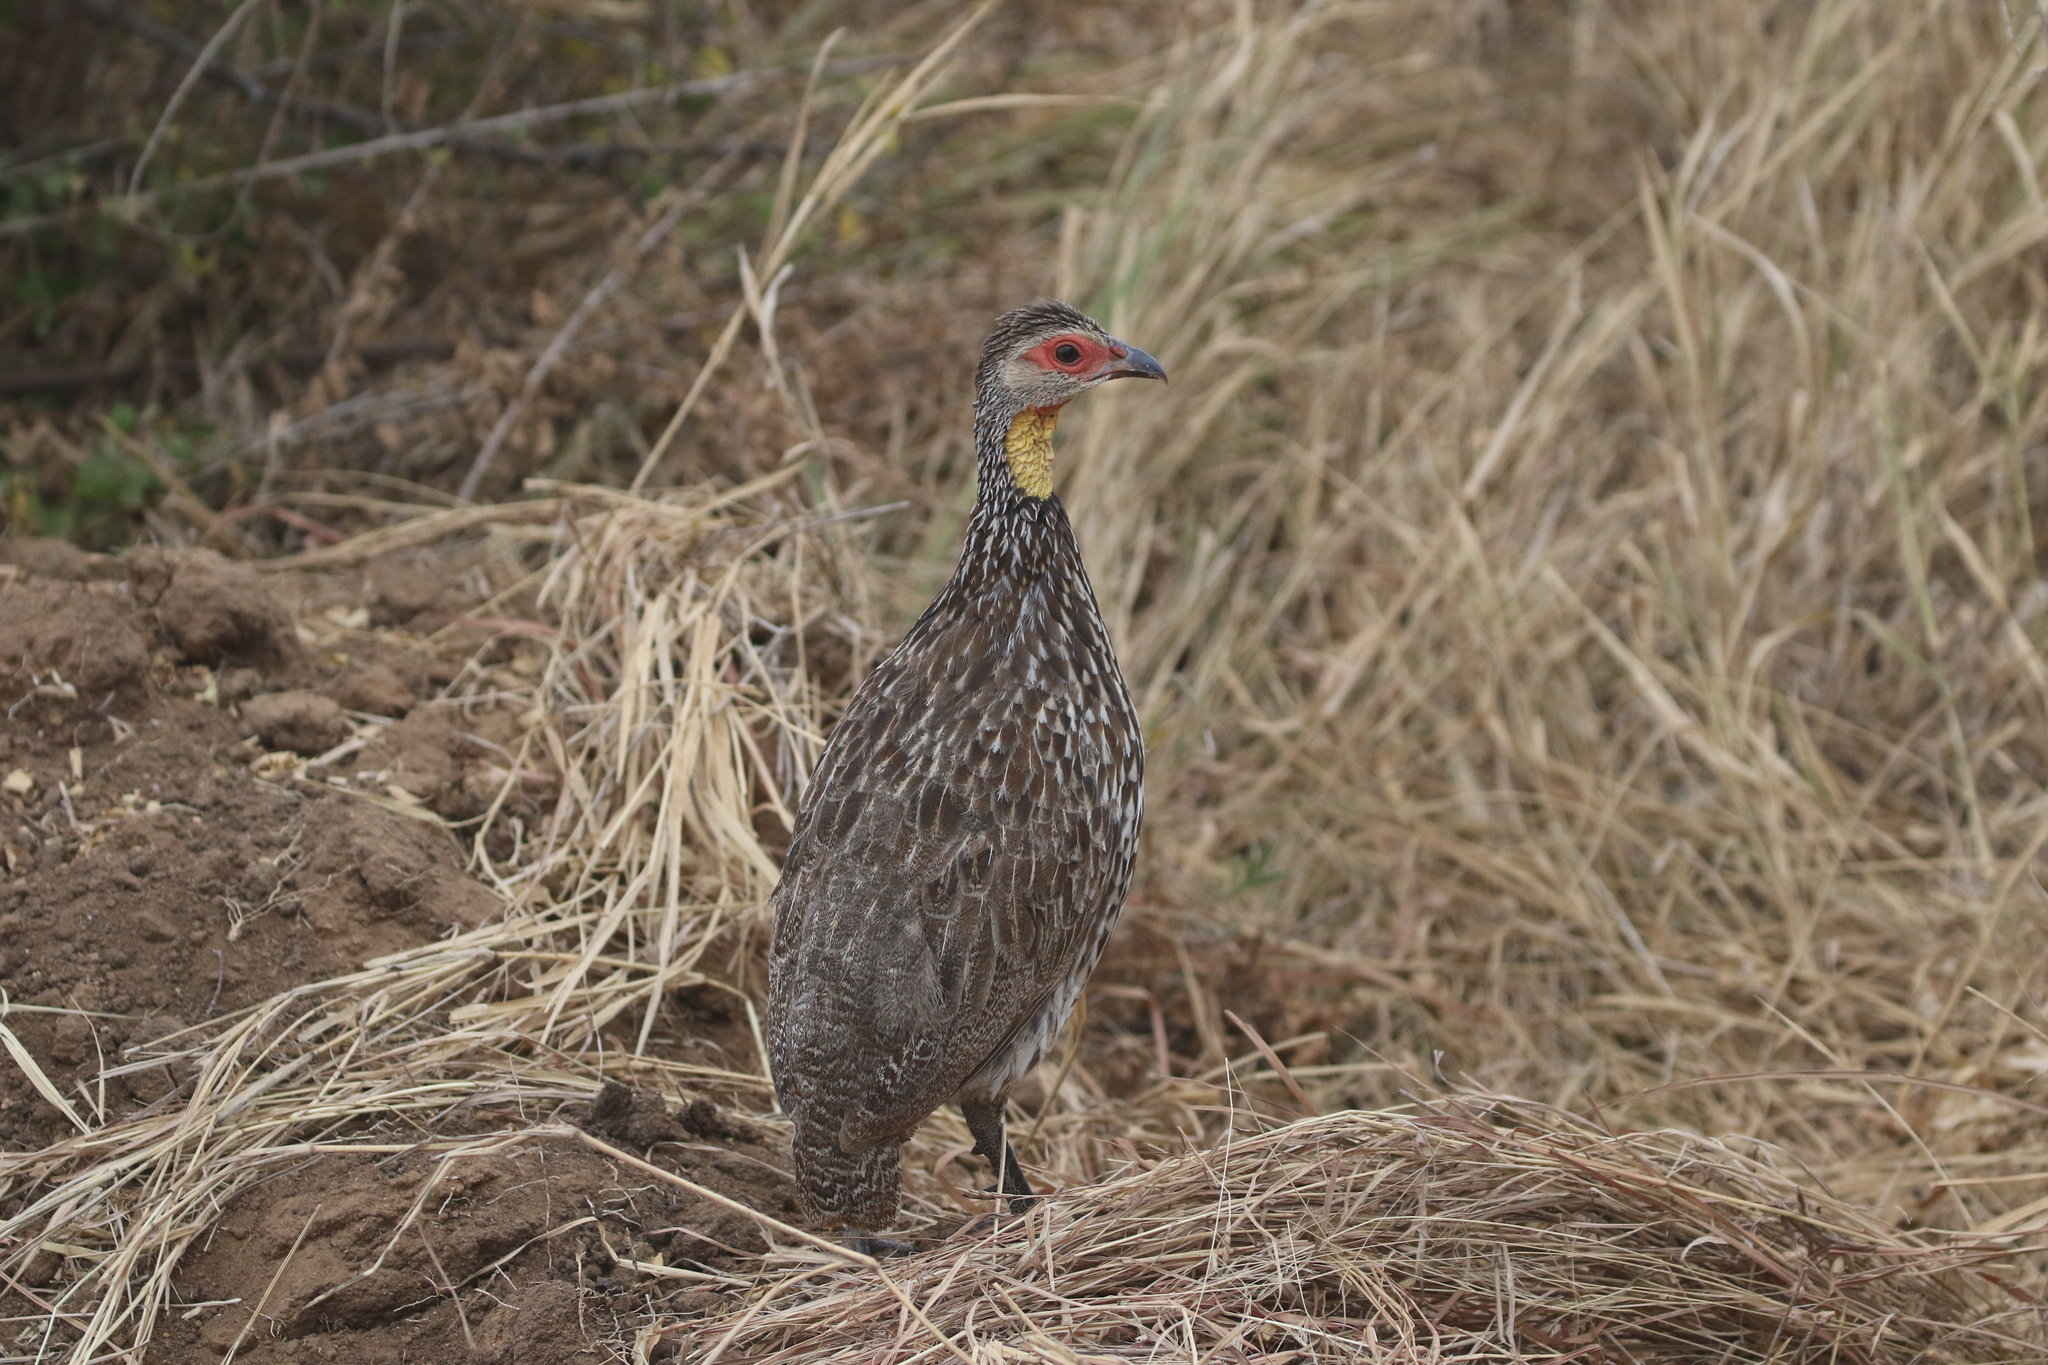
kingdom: Animalia
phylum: Chordata
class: Aves
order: Galliformes
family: Phasianidae
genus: Pternistis
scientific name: Pternistis leucoscepus
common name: Yellow-necked spurfowl
